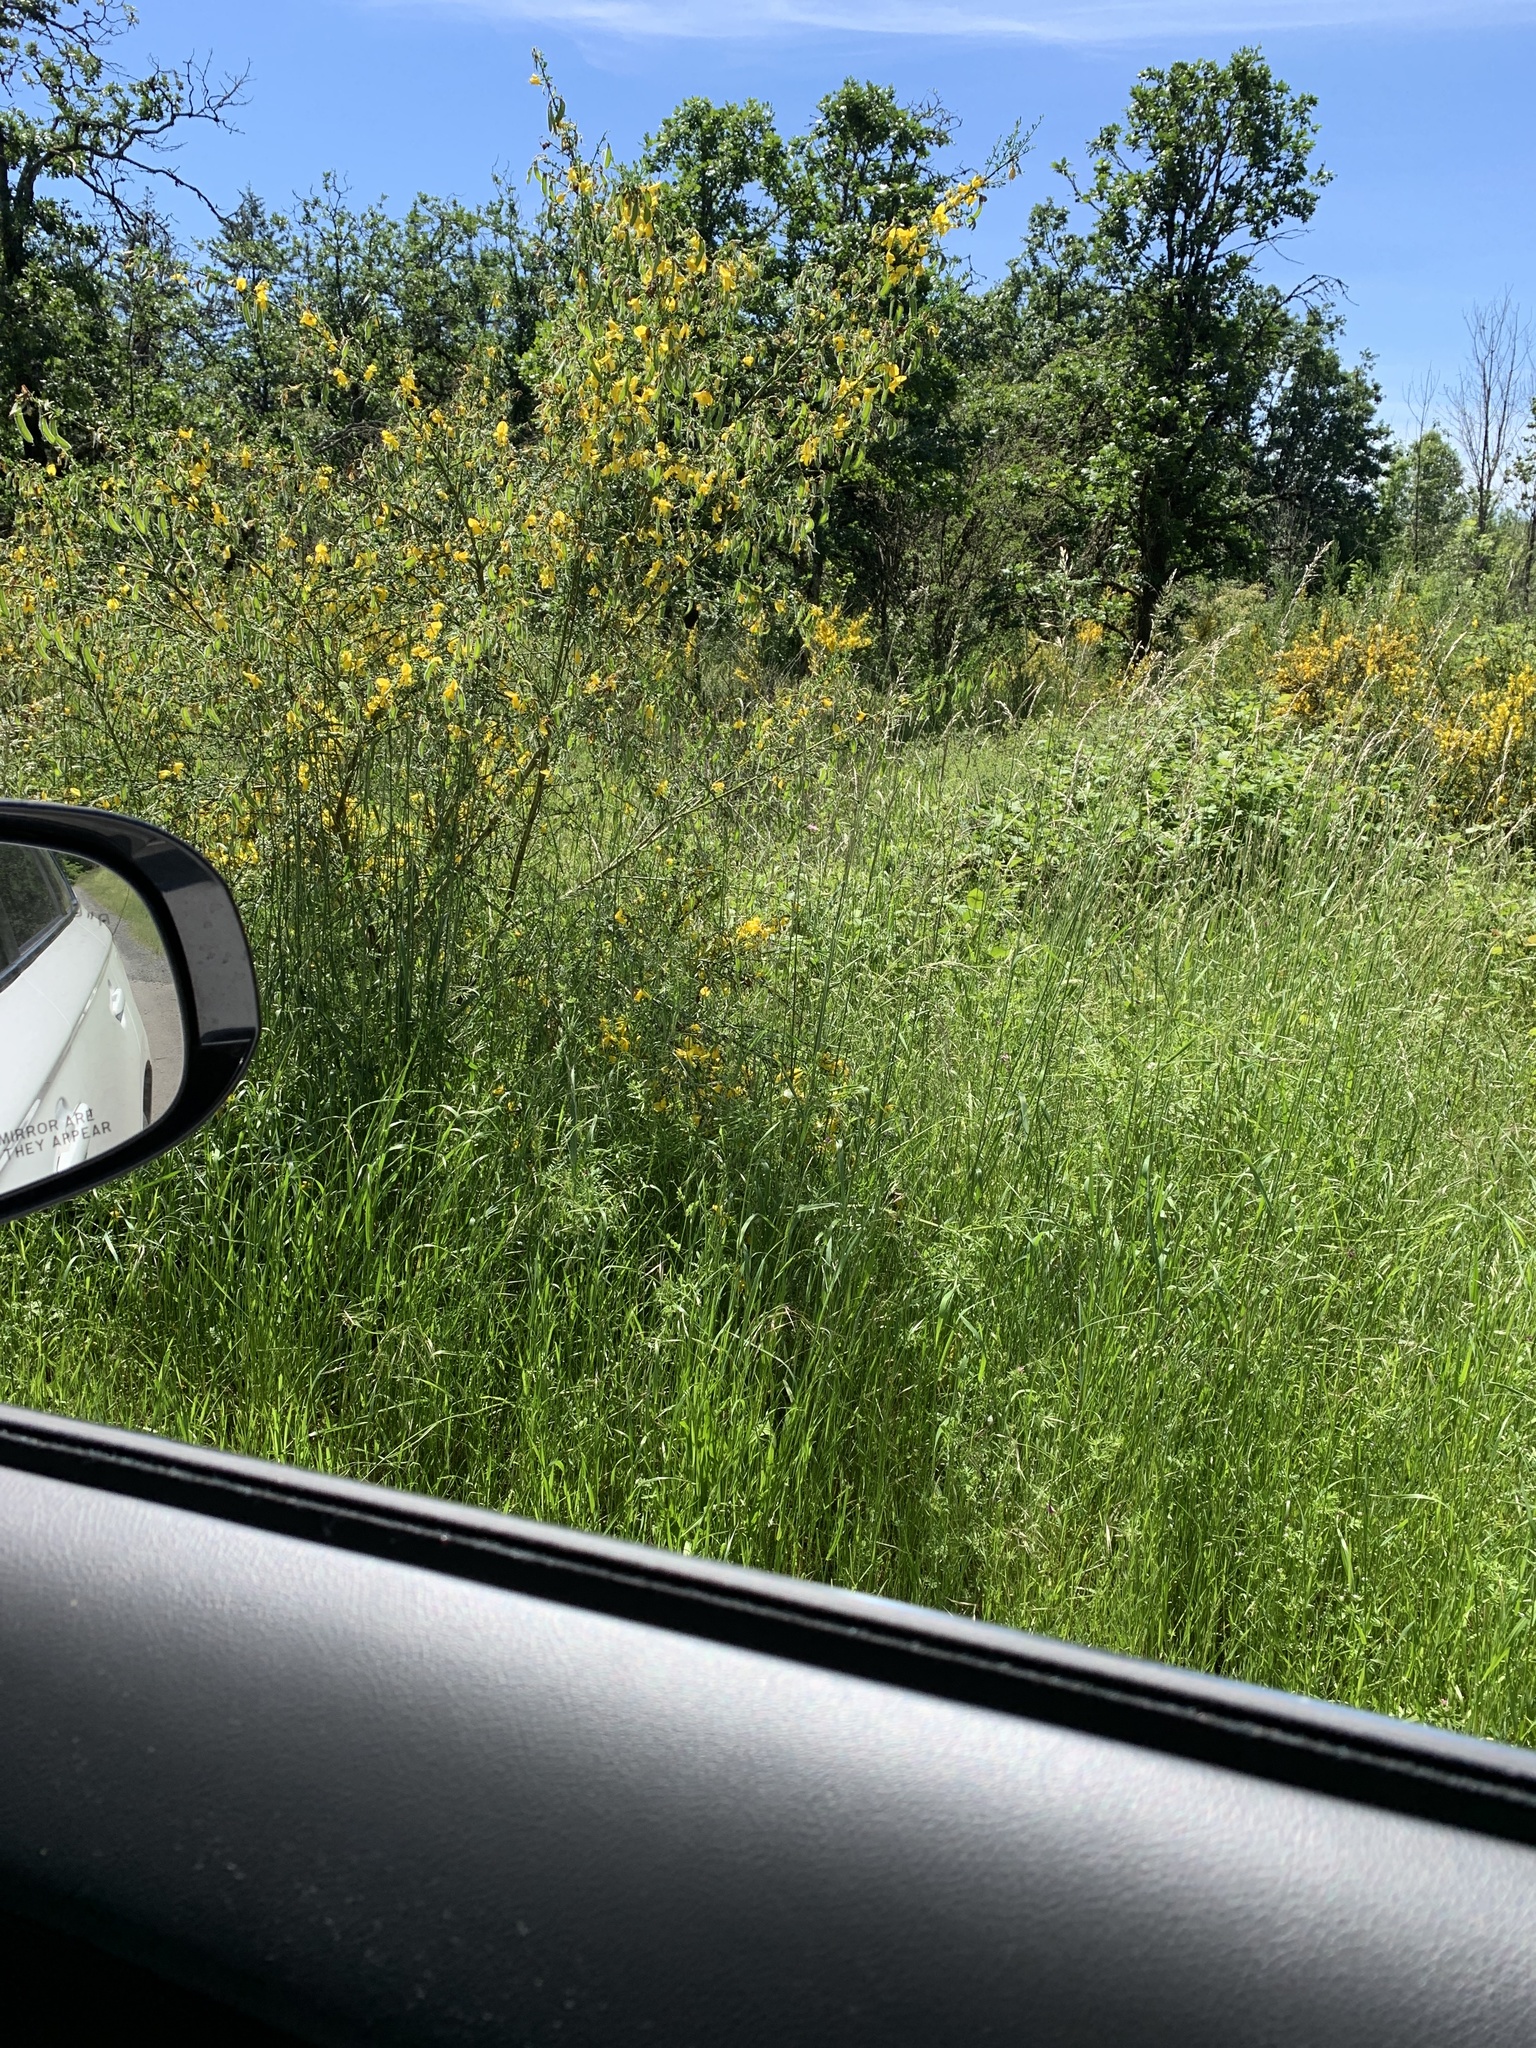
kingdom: Plantae
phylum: Tracheophyta
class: Magnoliopsida
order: Fabales
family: Fabaceae
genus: Cytisus
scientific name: Cytisus scoparius
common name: Scotch broom
